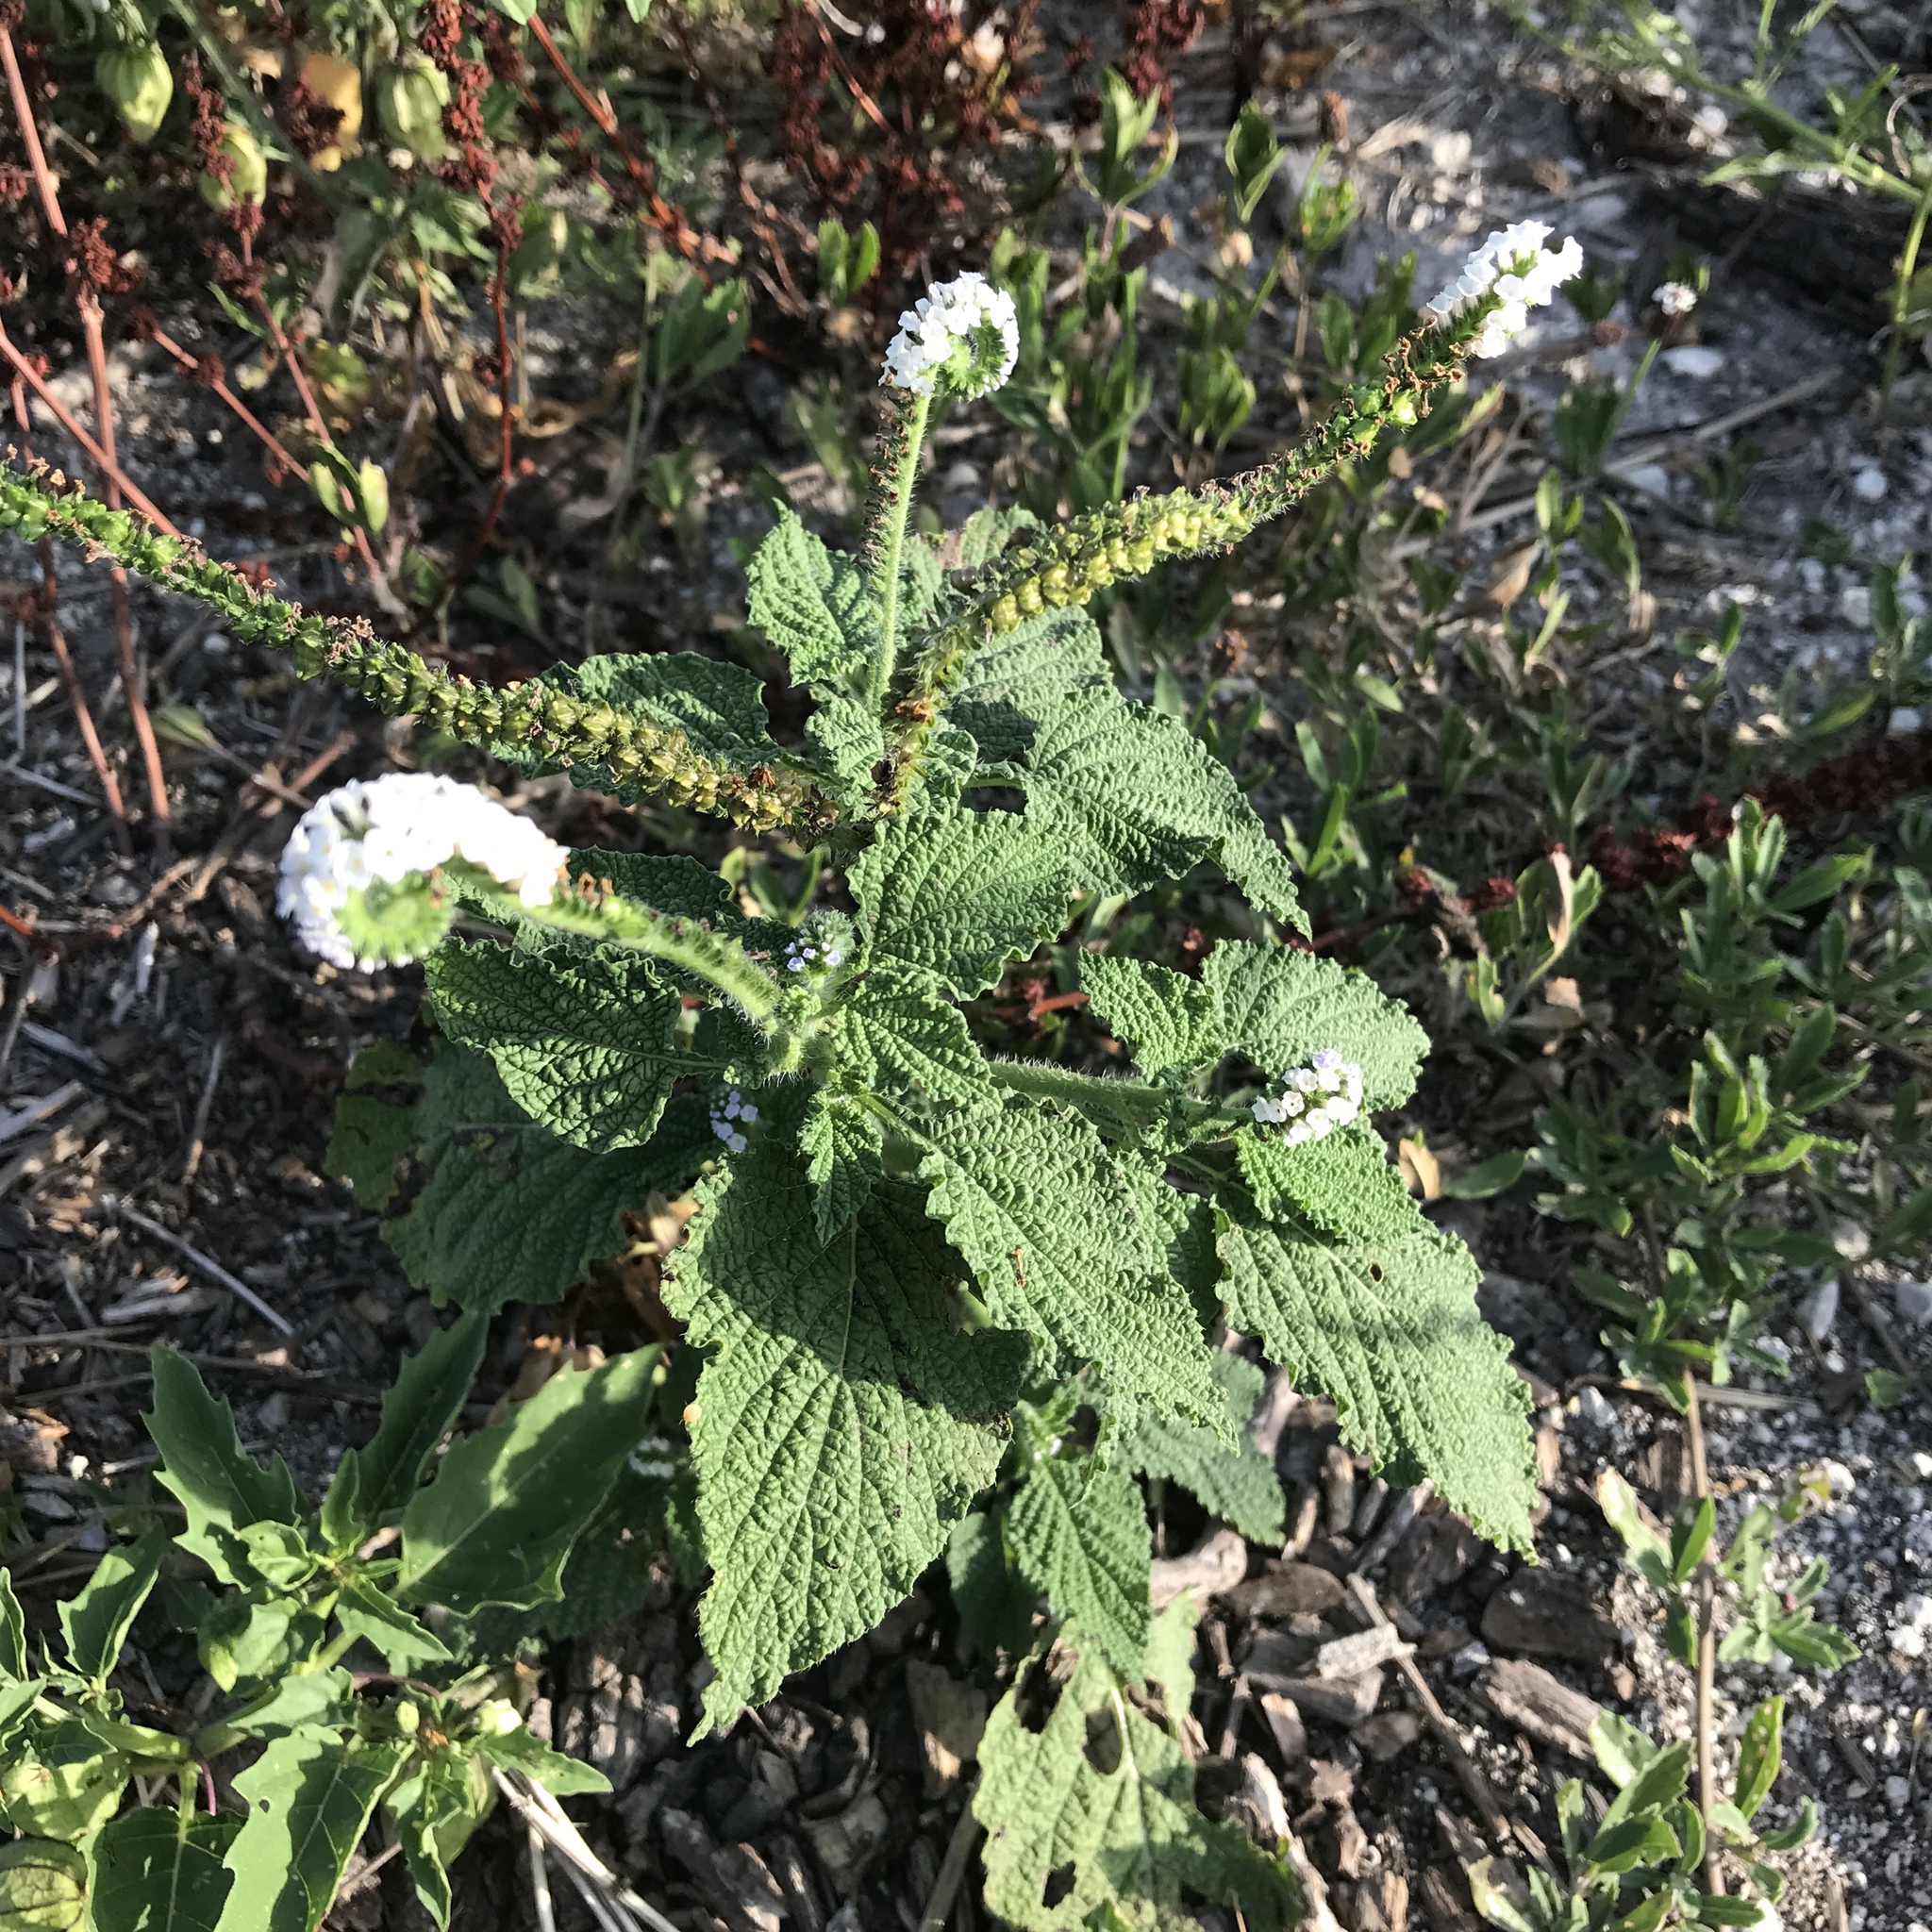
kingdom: Plantae
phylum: Tracheophyta
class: Magnoliopsida
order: Boraginales
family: Heliotropiaceae
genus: Heliotropium
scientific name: Heliotropium indicum
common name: Indian heliotrope
